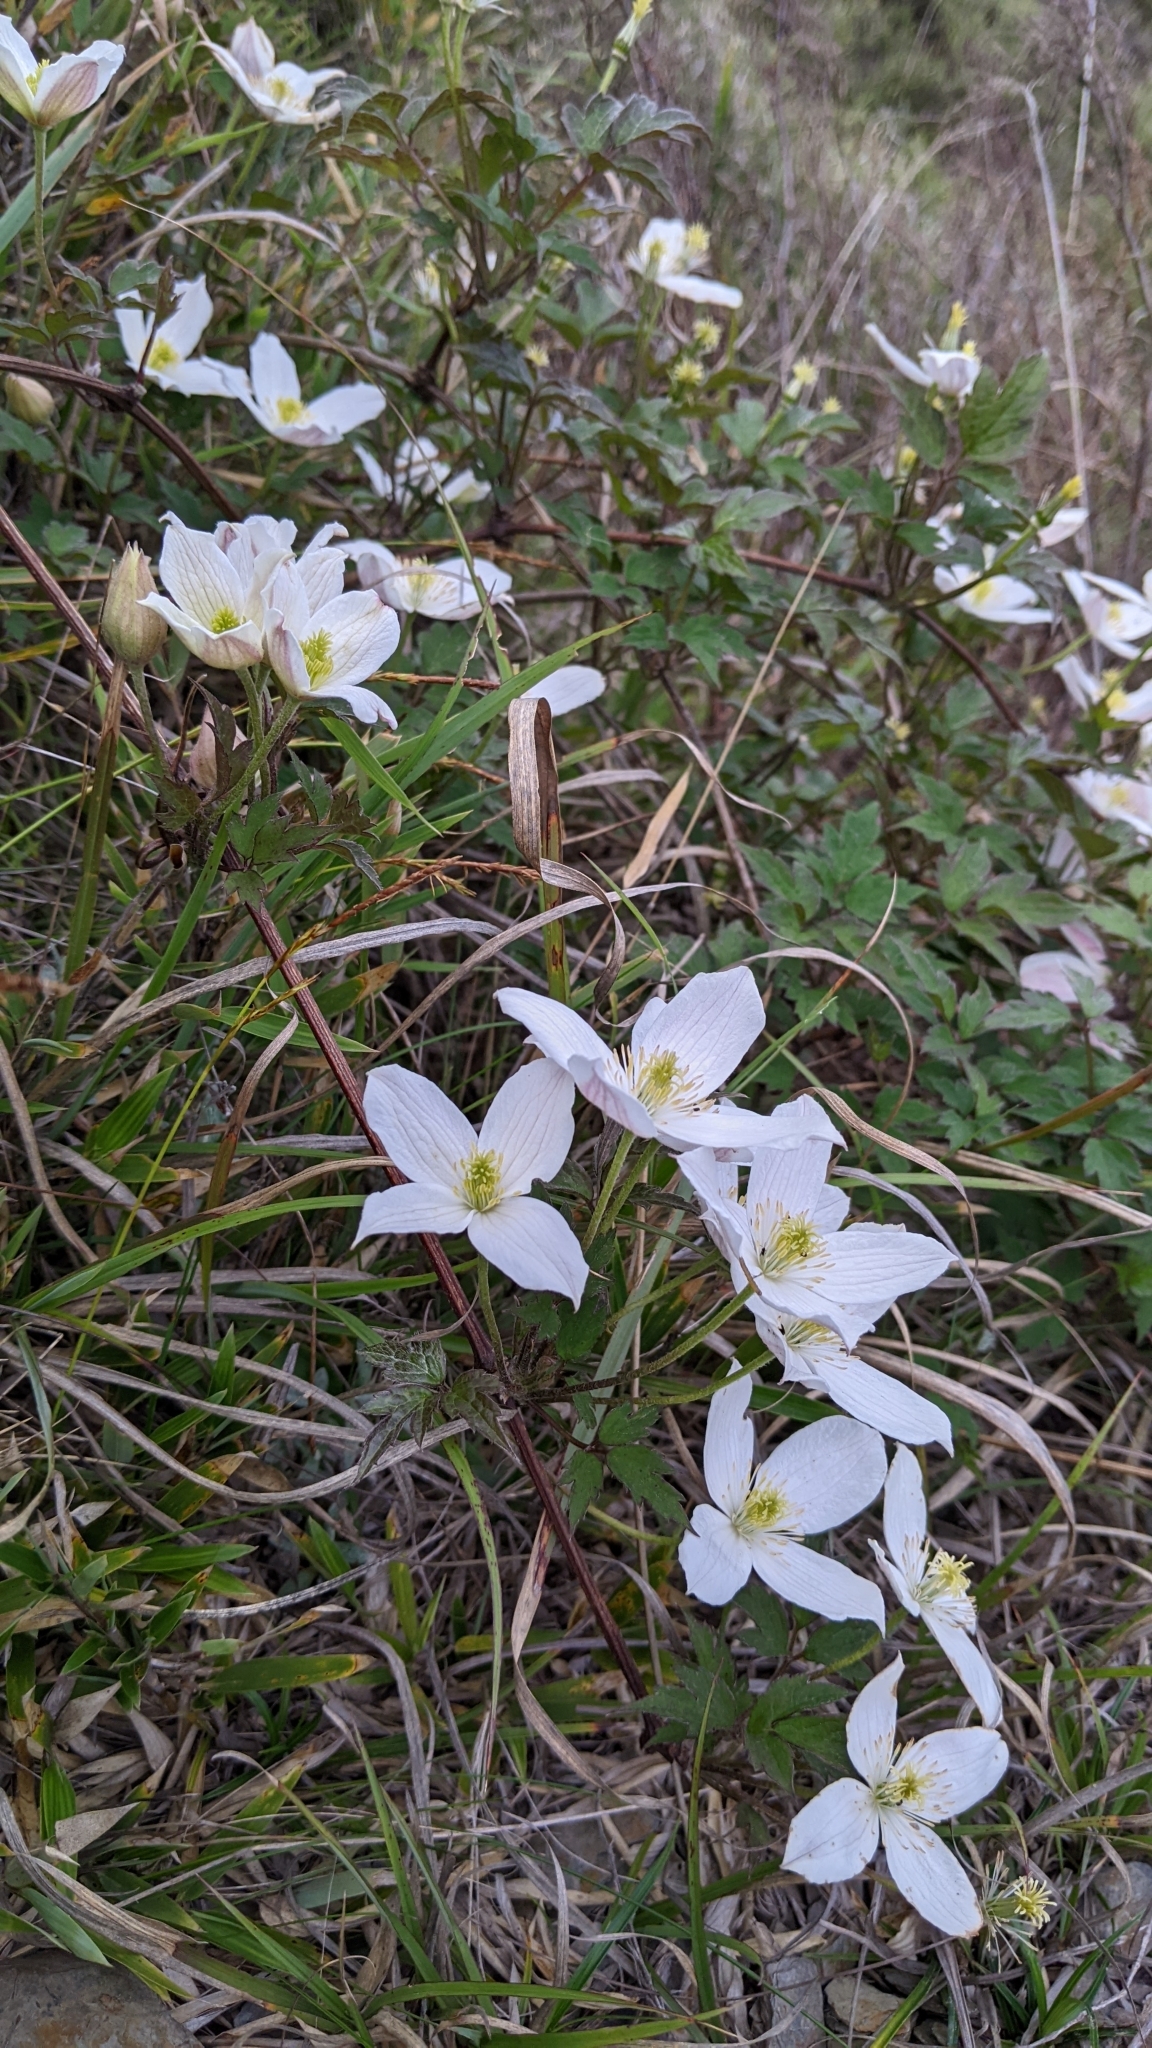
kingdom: Plantae
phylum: Tracheophyta
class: Magnoliopsida
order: Ranunculales
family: Ranunculaceae
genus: Clematis
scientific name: Clematis montana
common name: Himalayan clematis
